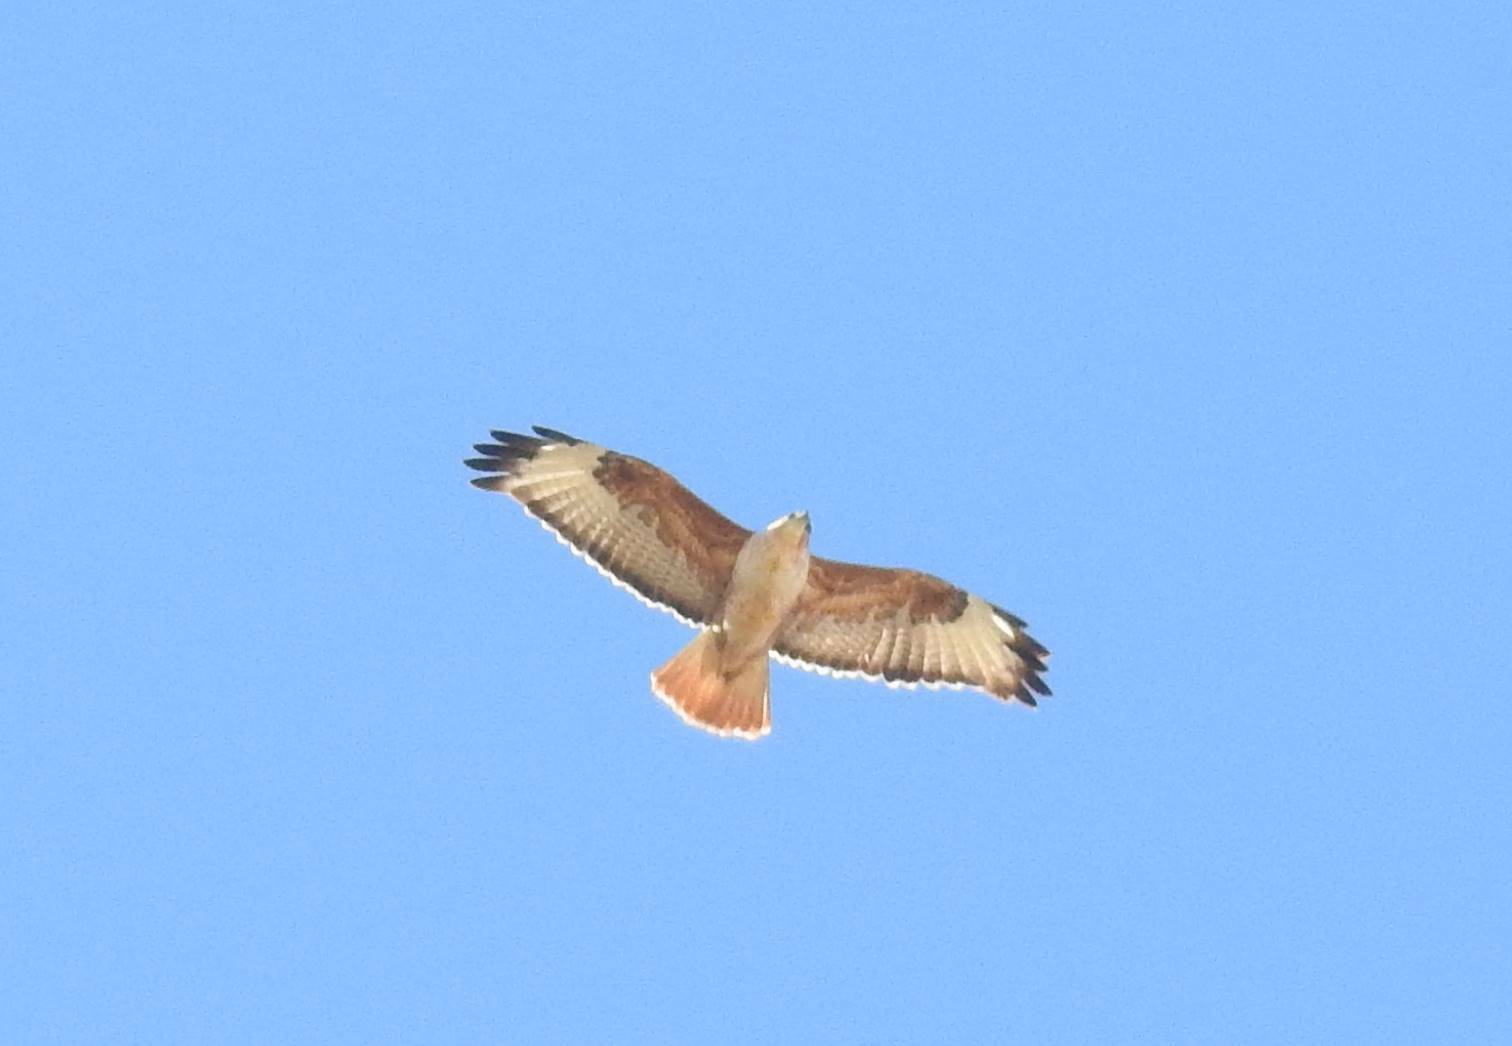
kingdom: Animalia
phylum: Chordata
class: Aves
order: Accipitriformes
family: Accipitridae
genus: Buteo
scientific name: Buteo rufinus
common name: Long-legged buzzard
